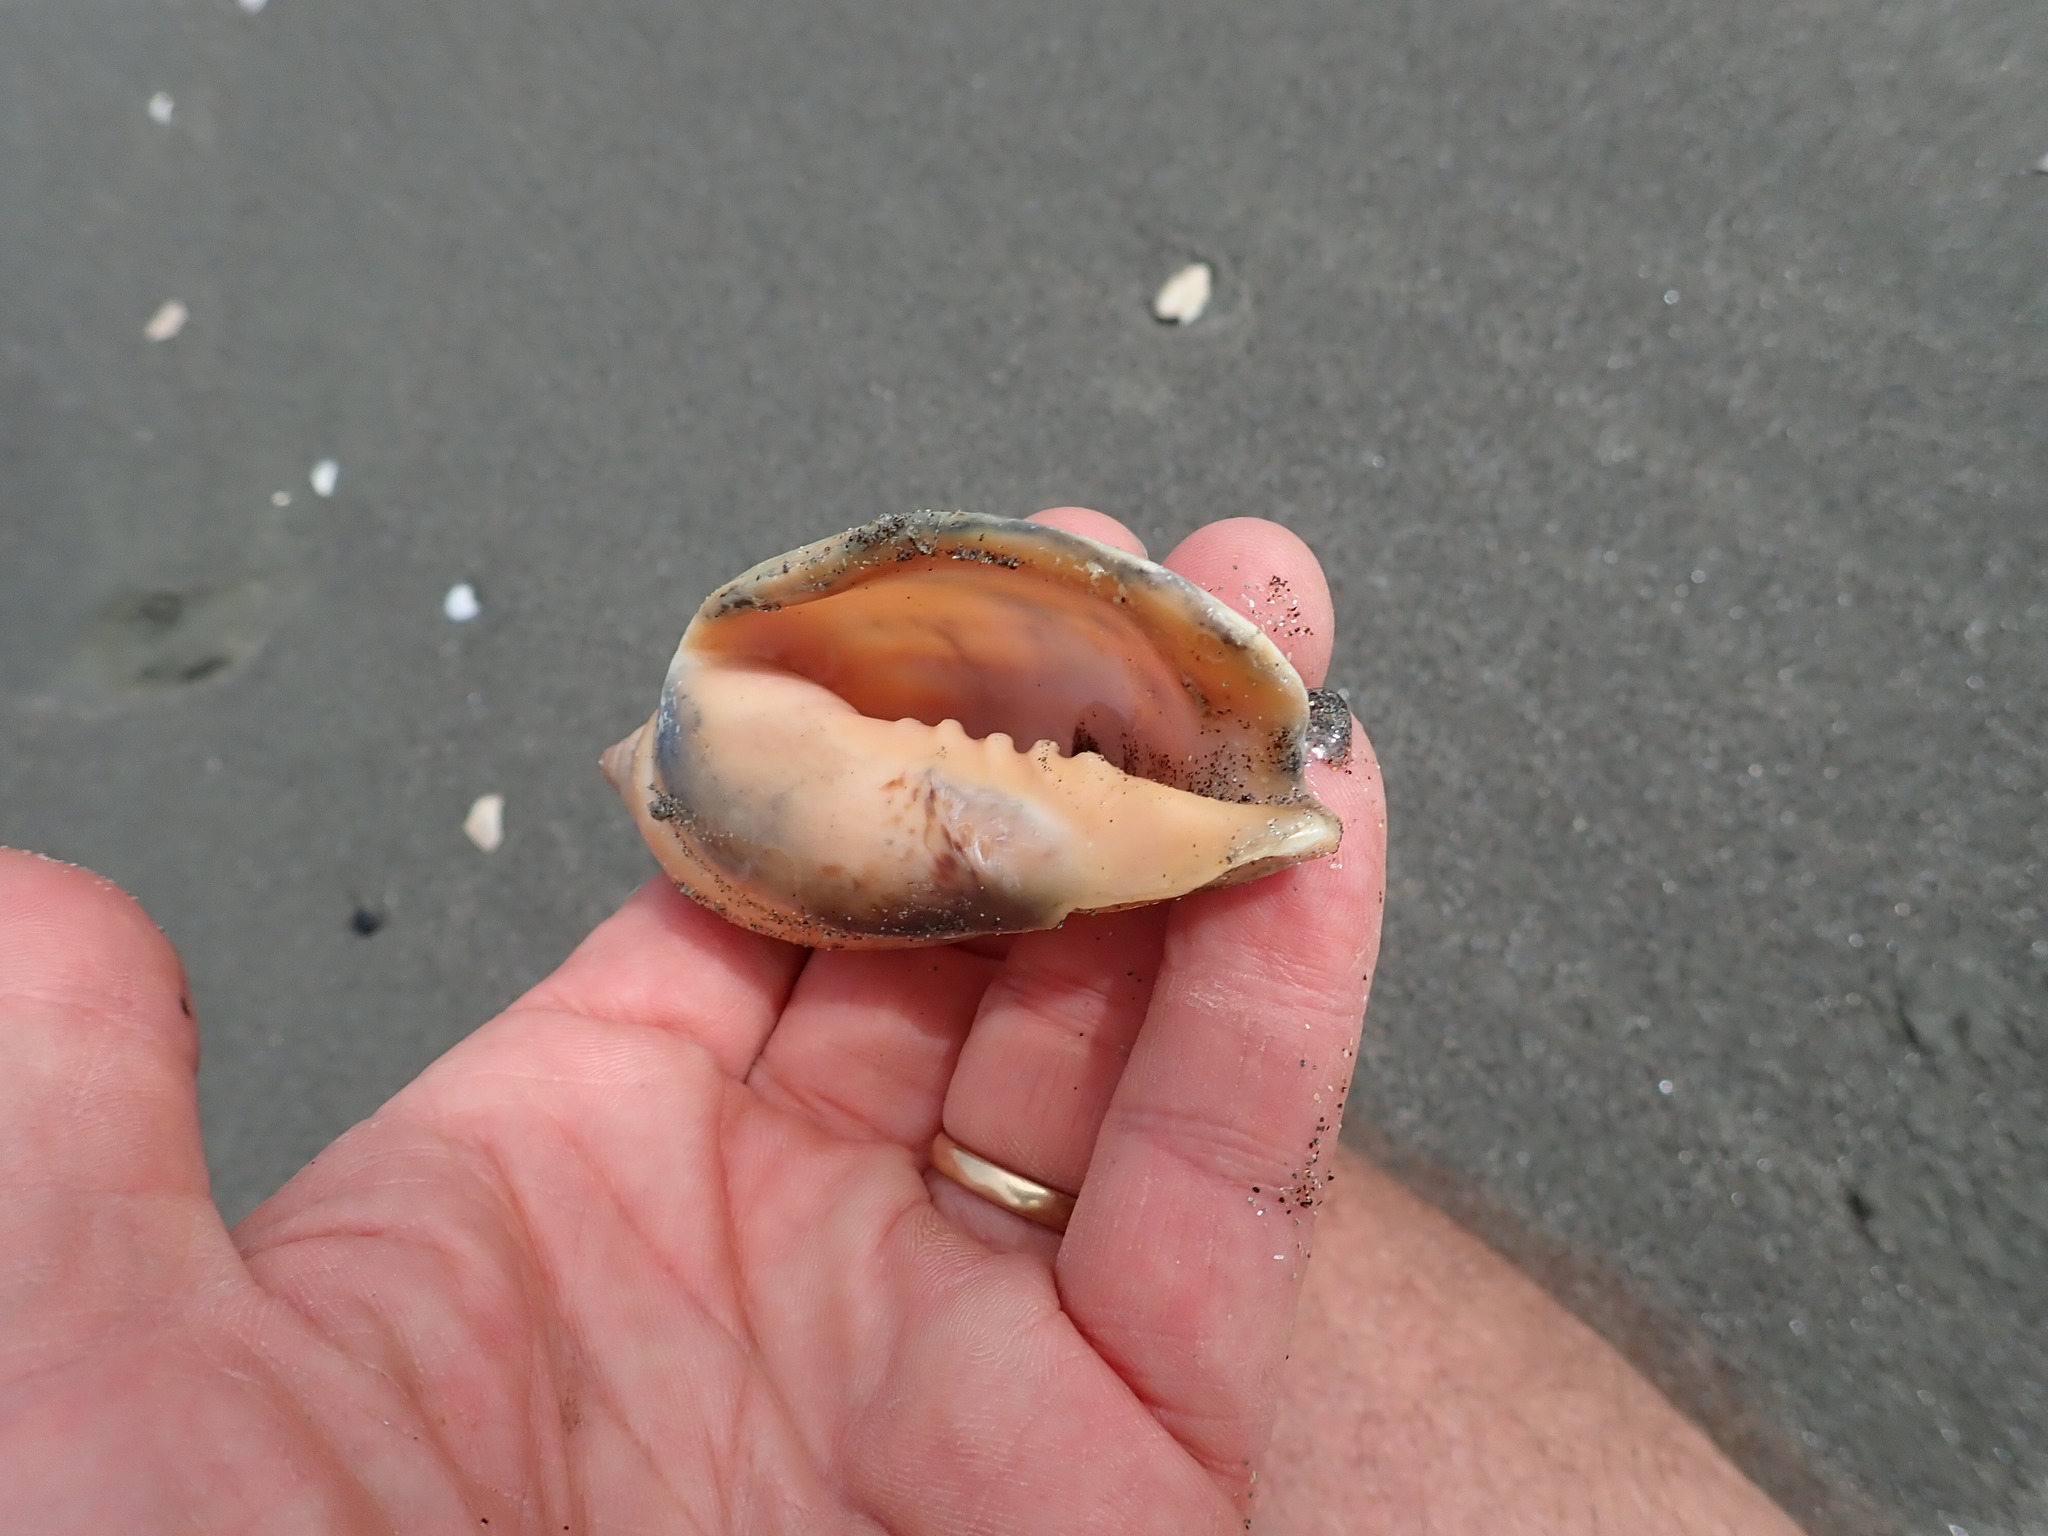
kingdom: Animalia
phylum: Mollusca
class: Gastropoda
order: Neogastropoda
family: Volutidae
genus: Alcithoe
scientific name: Alcithoe arabica
